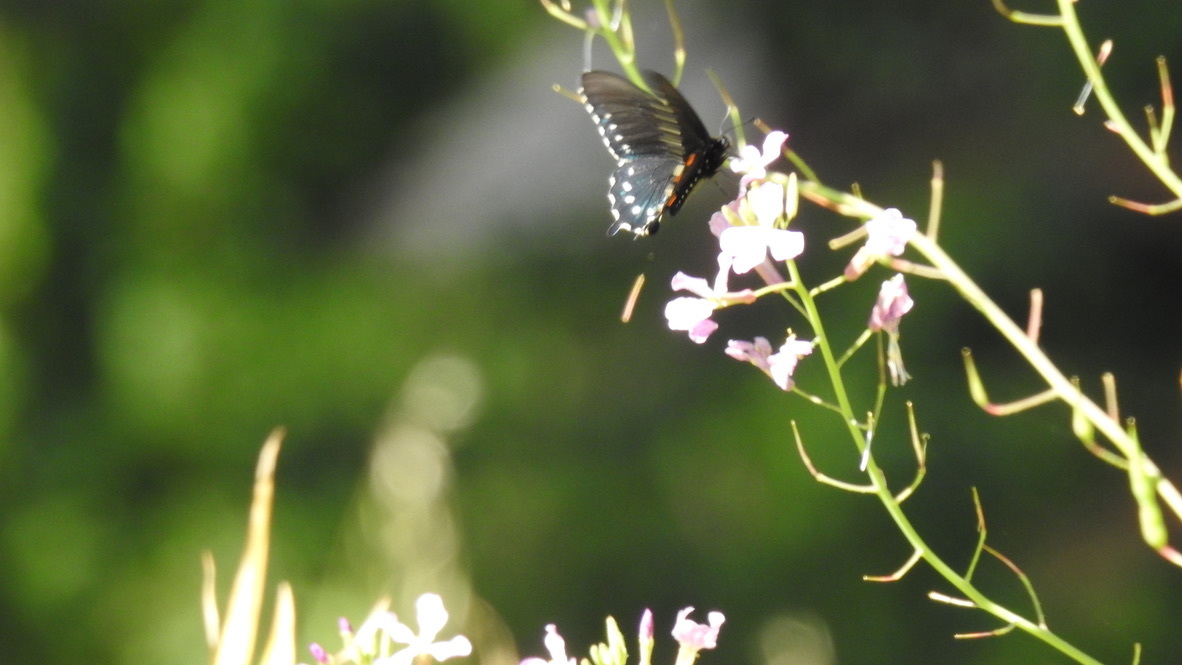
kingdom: Animalia
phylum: Arthropoda
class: Insecta
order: Lepidoptera
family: Papilionidae
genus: Battus
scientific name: Battus philenor
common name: Pipevine swallowtail
